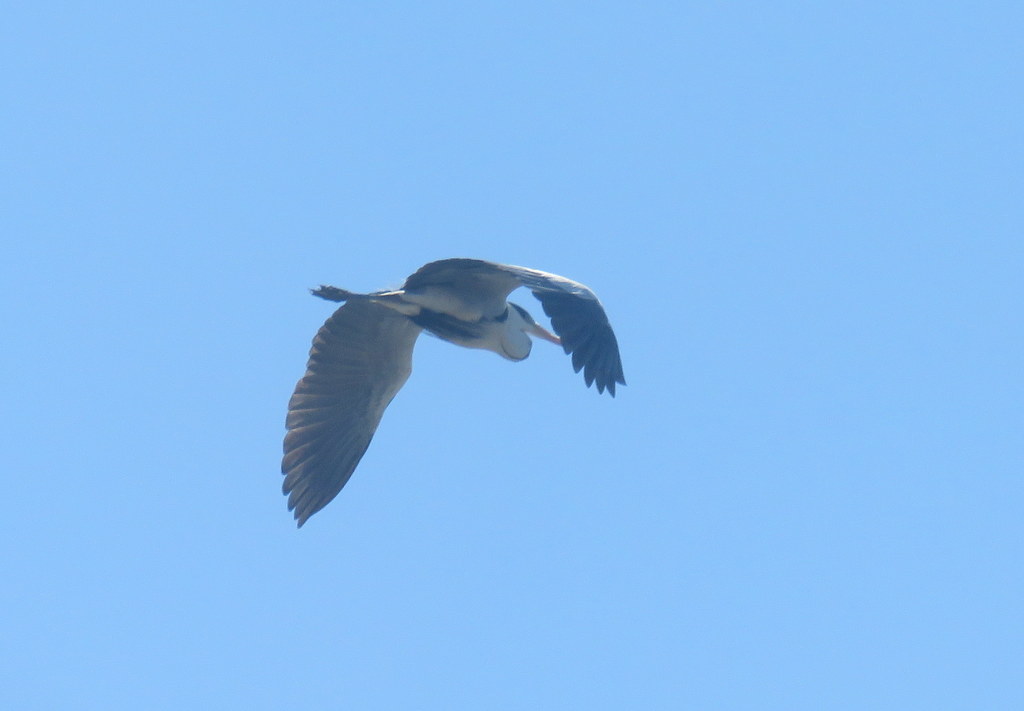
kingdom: Animalia
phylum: Chordata
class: Aves
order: Pelecaniformes
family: Ardeidae
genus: Ardea
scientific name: Ardea cocoi
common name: Cocoi heron
